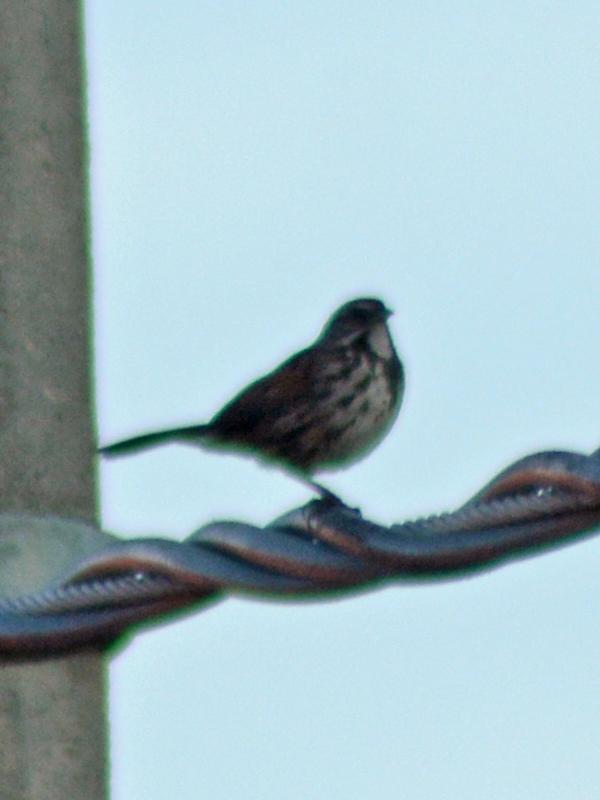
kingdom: Animalia
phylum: Chordata
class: Aves
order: Passeriformes
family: Passerellidae
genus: Melospiza
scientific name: Melospiza melodia
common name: Song sparrow
